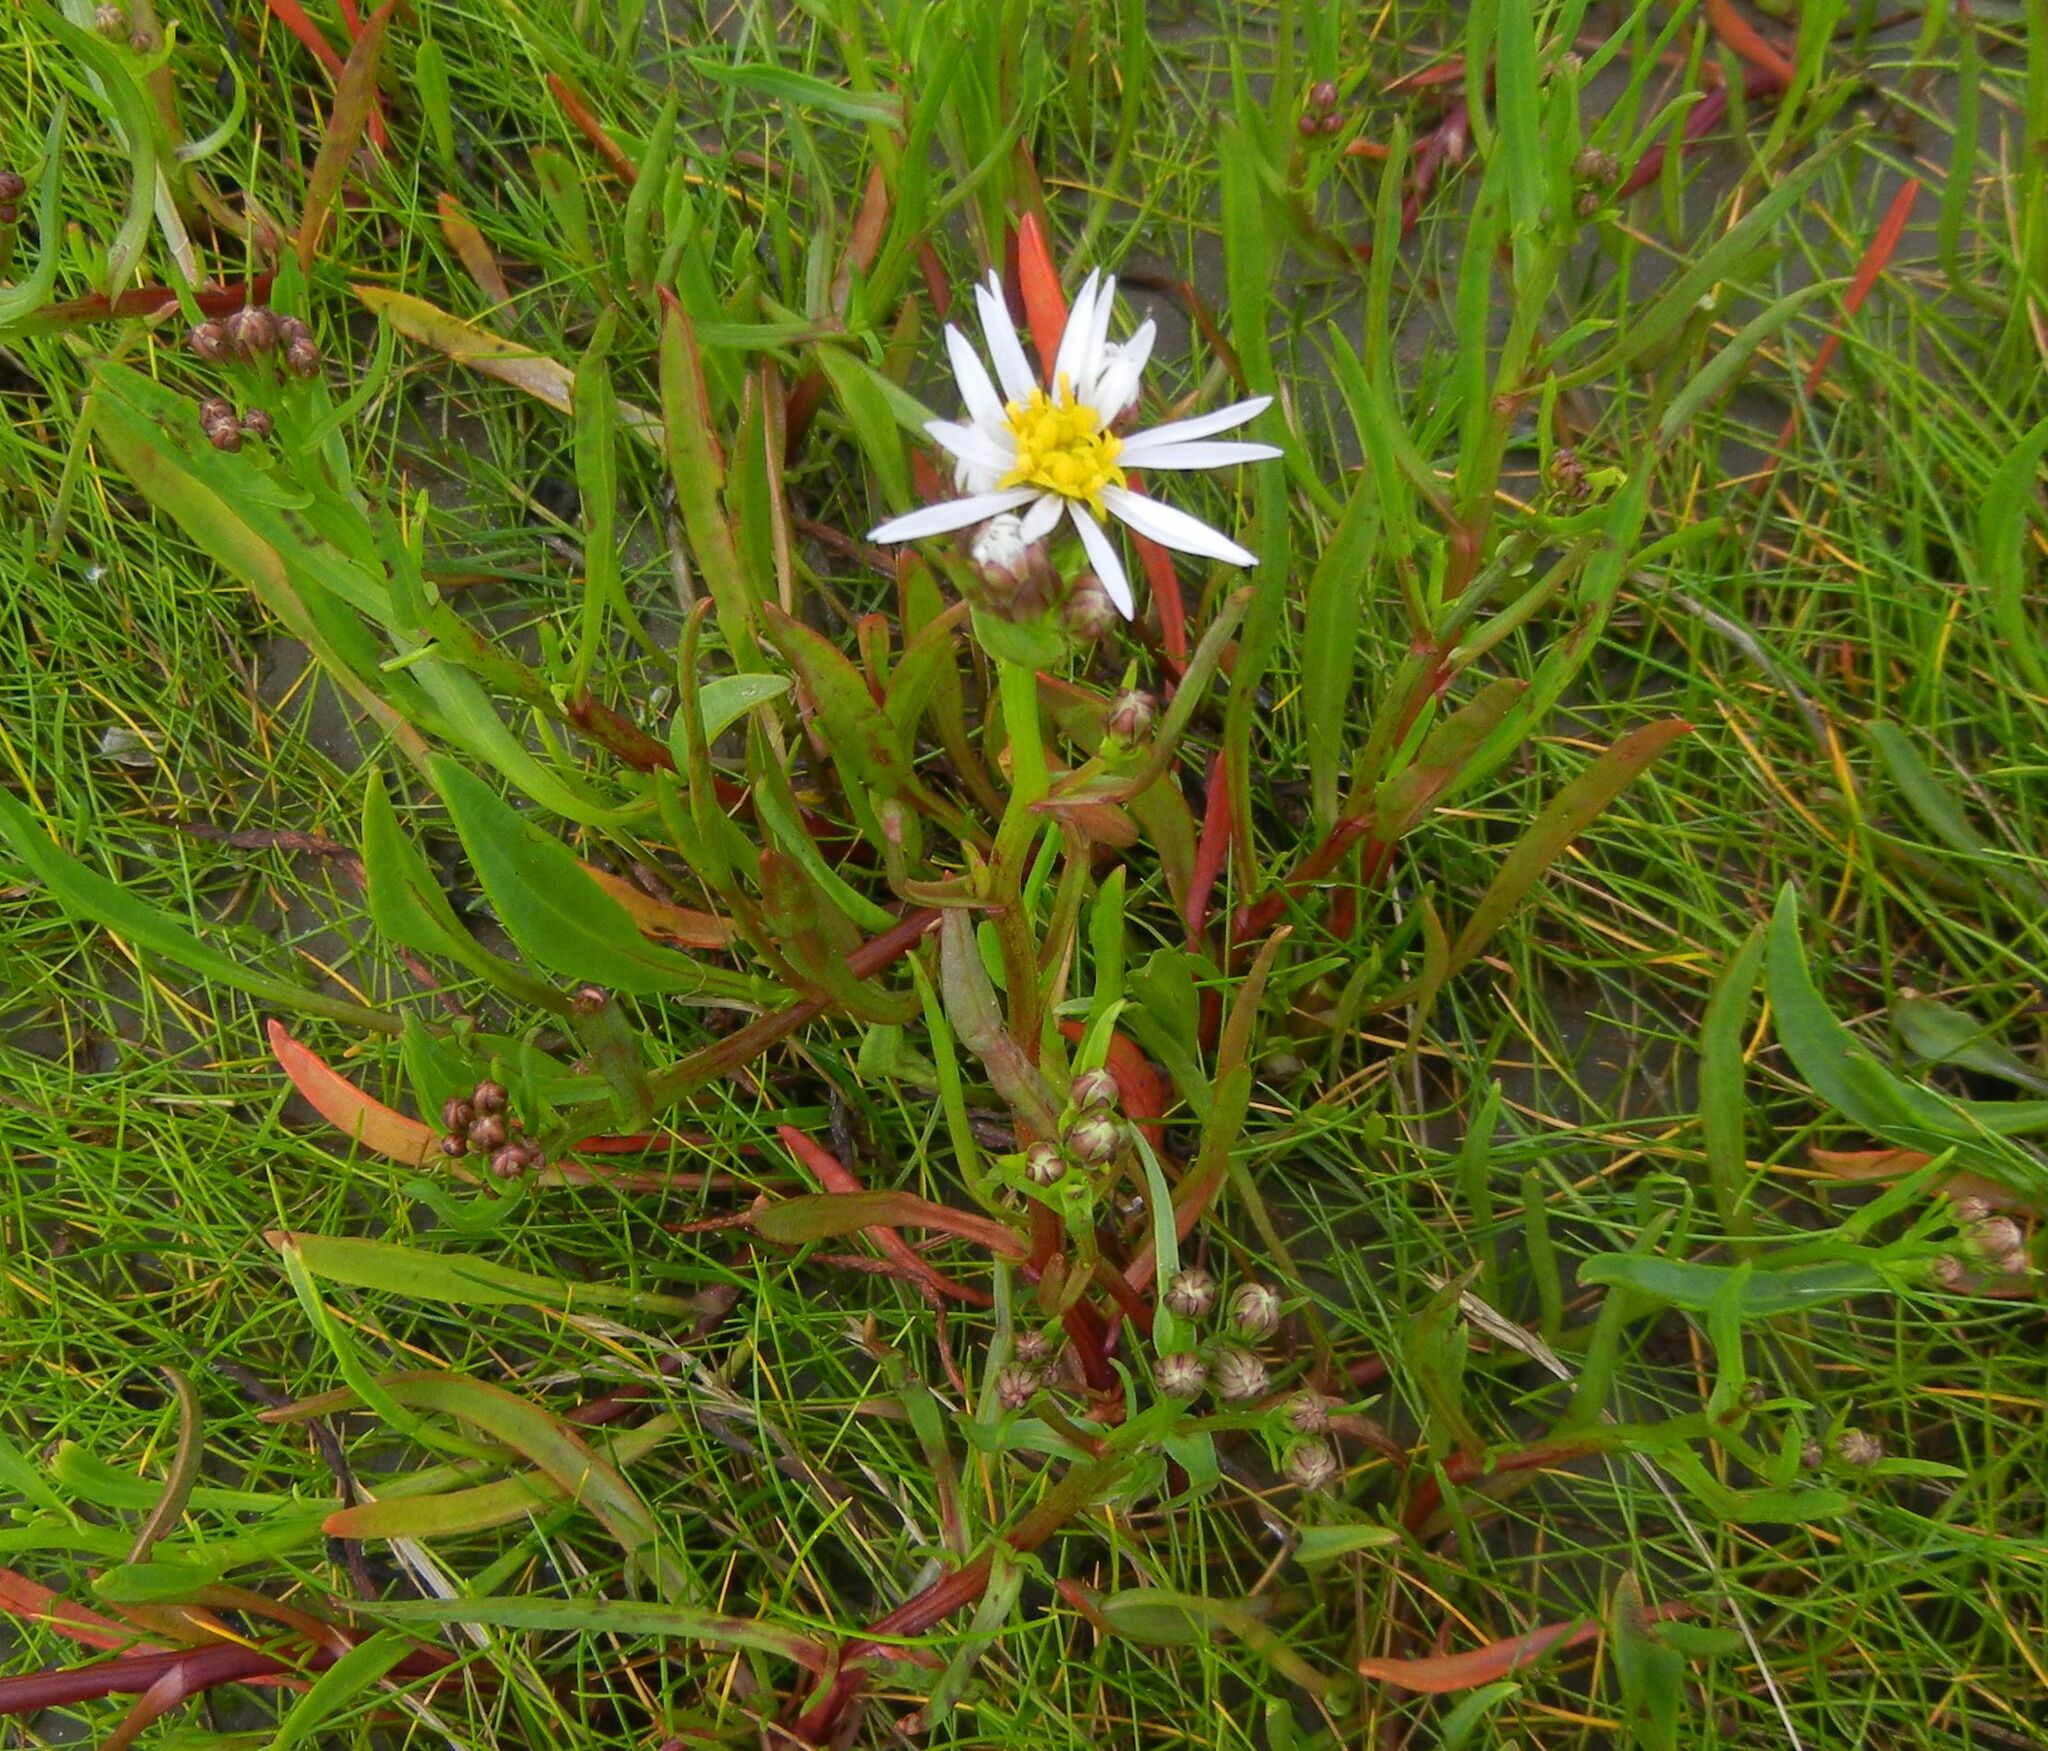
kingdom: Plantae
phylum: Tracheophyta
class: Magnoliopsida
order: Asterales
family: Asteraceae
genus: Tripolium
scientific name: Tripolium pannonicum
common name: Sea aster
